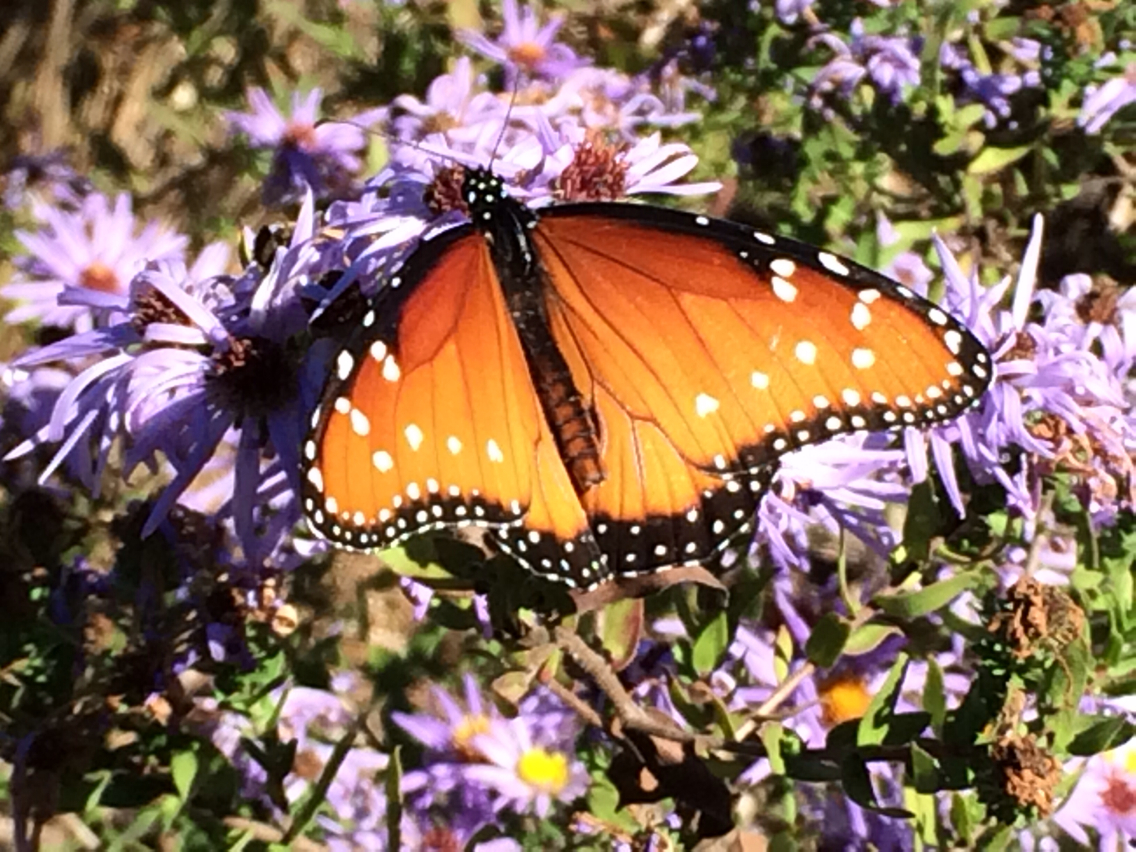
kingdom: Animalia
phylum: Arthropoda
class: Insecta
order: Lepidoptera
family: Nymphalidae
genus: Danaus
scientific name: Danaus gilippus
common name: Queen
